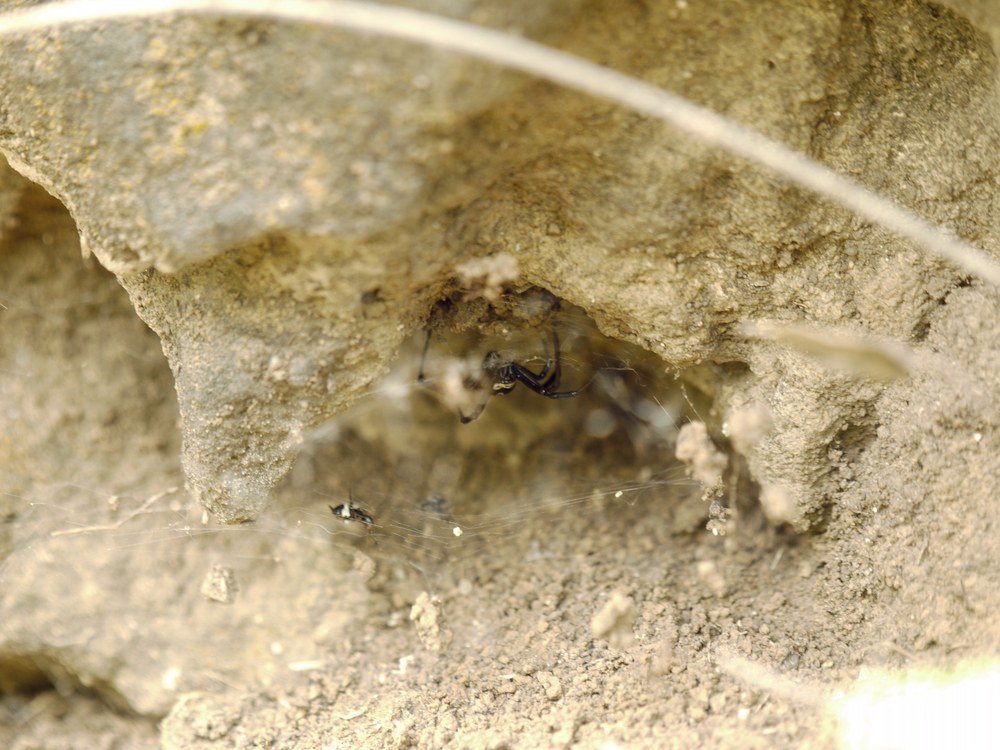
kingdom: Animalia
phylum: Arthropoda
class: Arachnida
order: Araneae
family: Theridiidae
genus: Latrodectus
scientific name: Latrodectus tredecimguttatus
